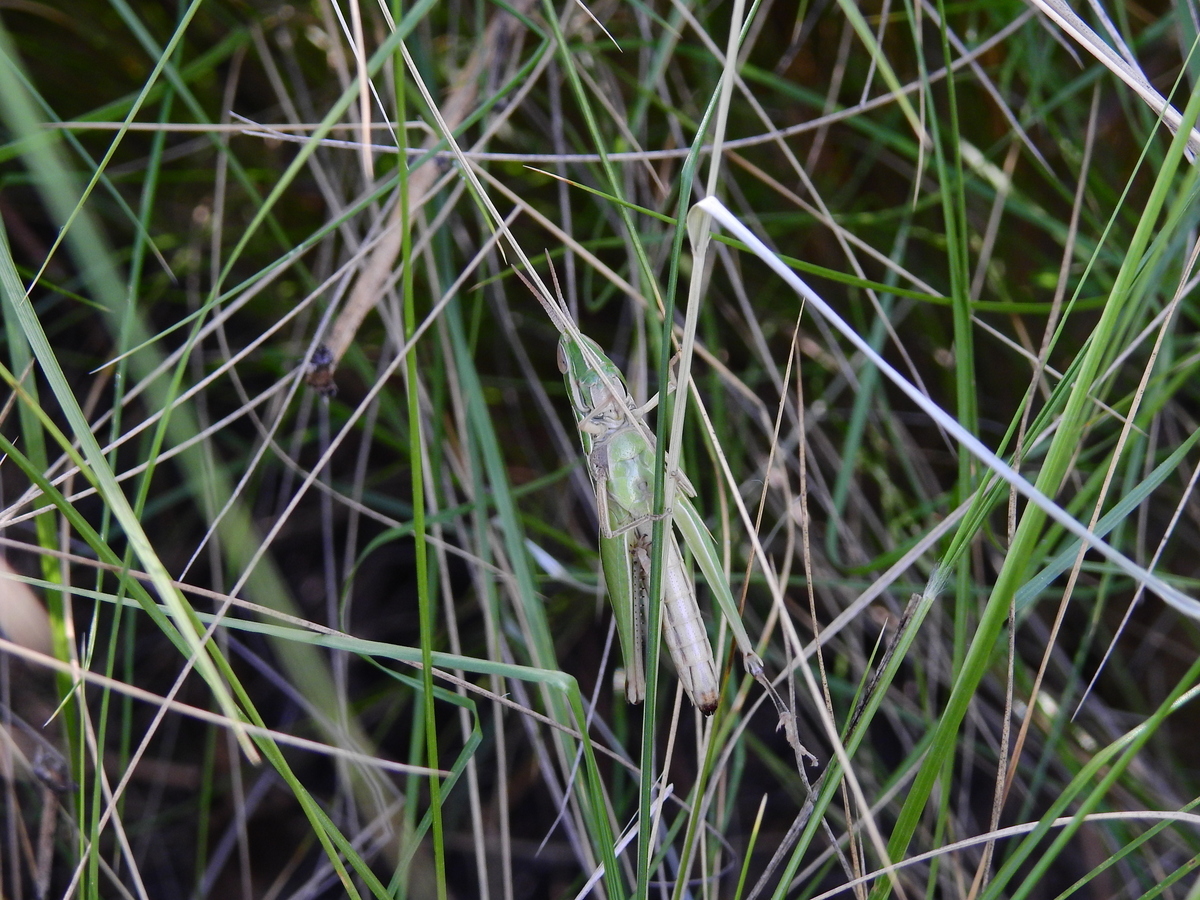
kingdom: Animalia
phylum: Arthropoda
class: Insecta
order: Orthoptera
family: Acrididae
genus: Sinipta
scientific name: Sinipta dalmani
